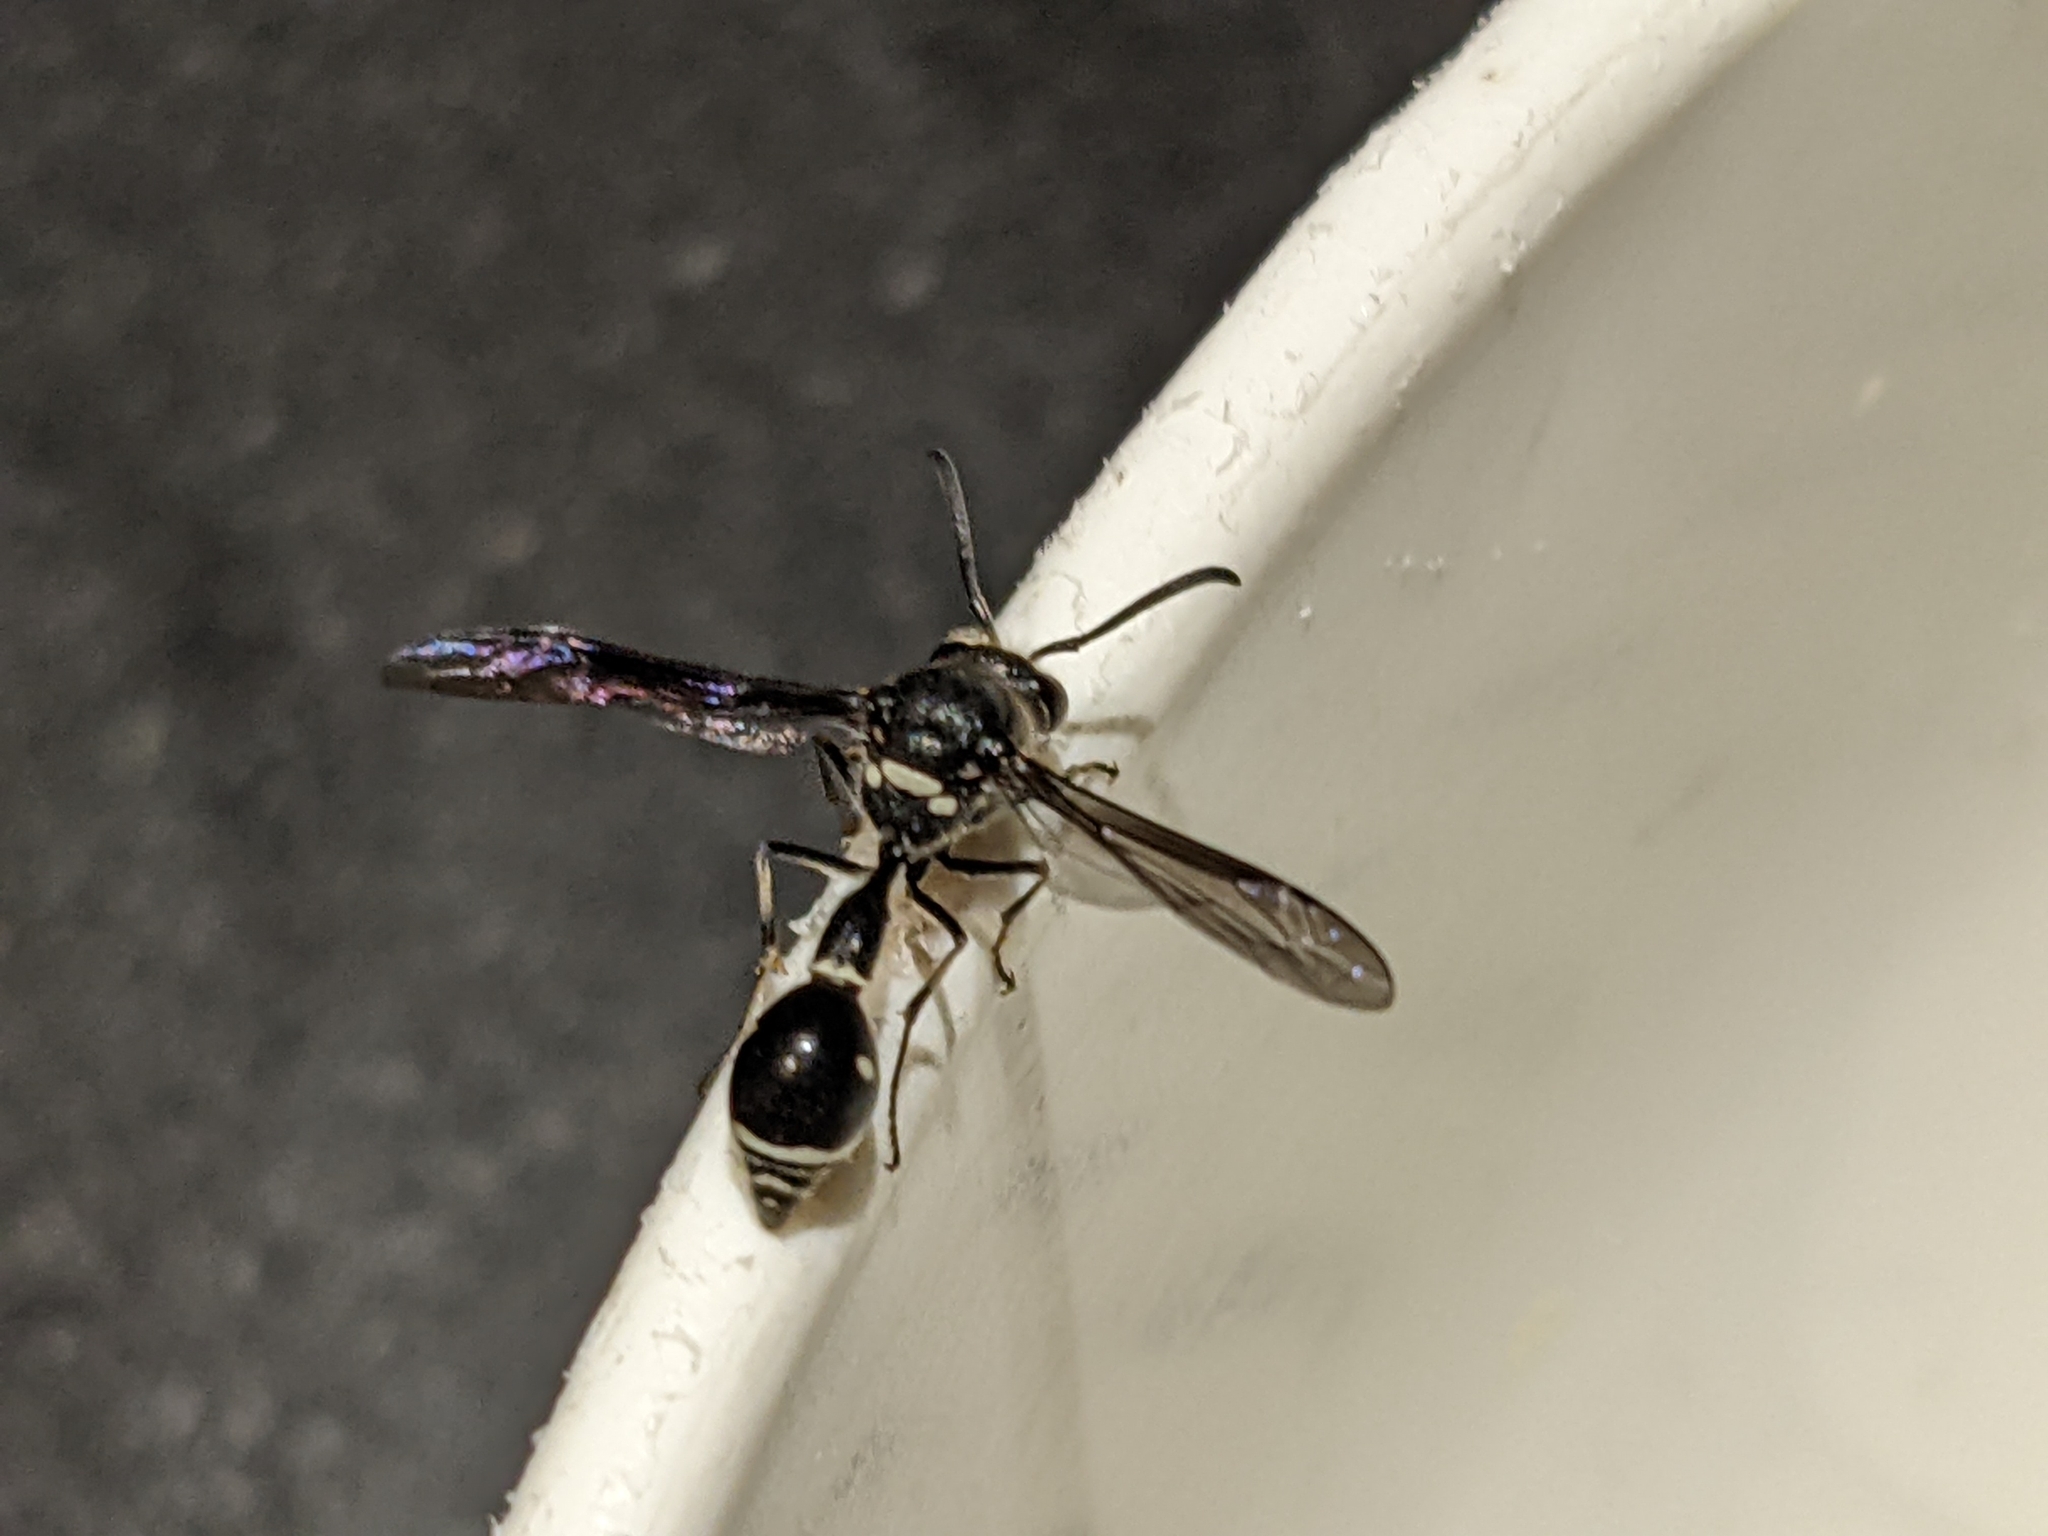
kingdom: Animalia
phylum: Arthropoda
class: Insecta
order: Hymenoptera
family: Vespidae
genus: Eumenes
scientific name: Eumenes fraternus
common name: Fraternal potter wasp
